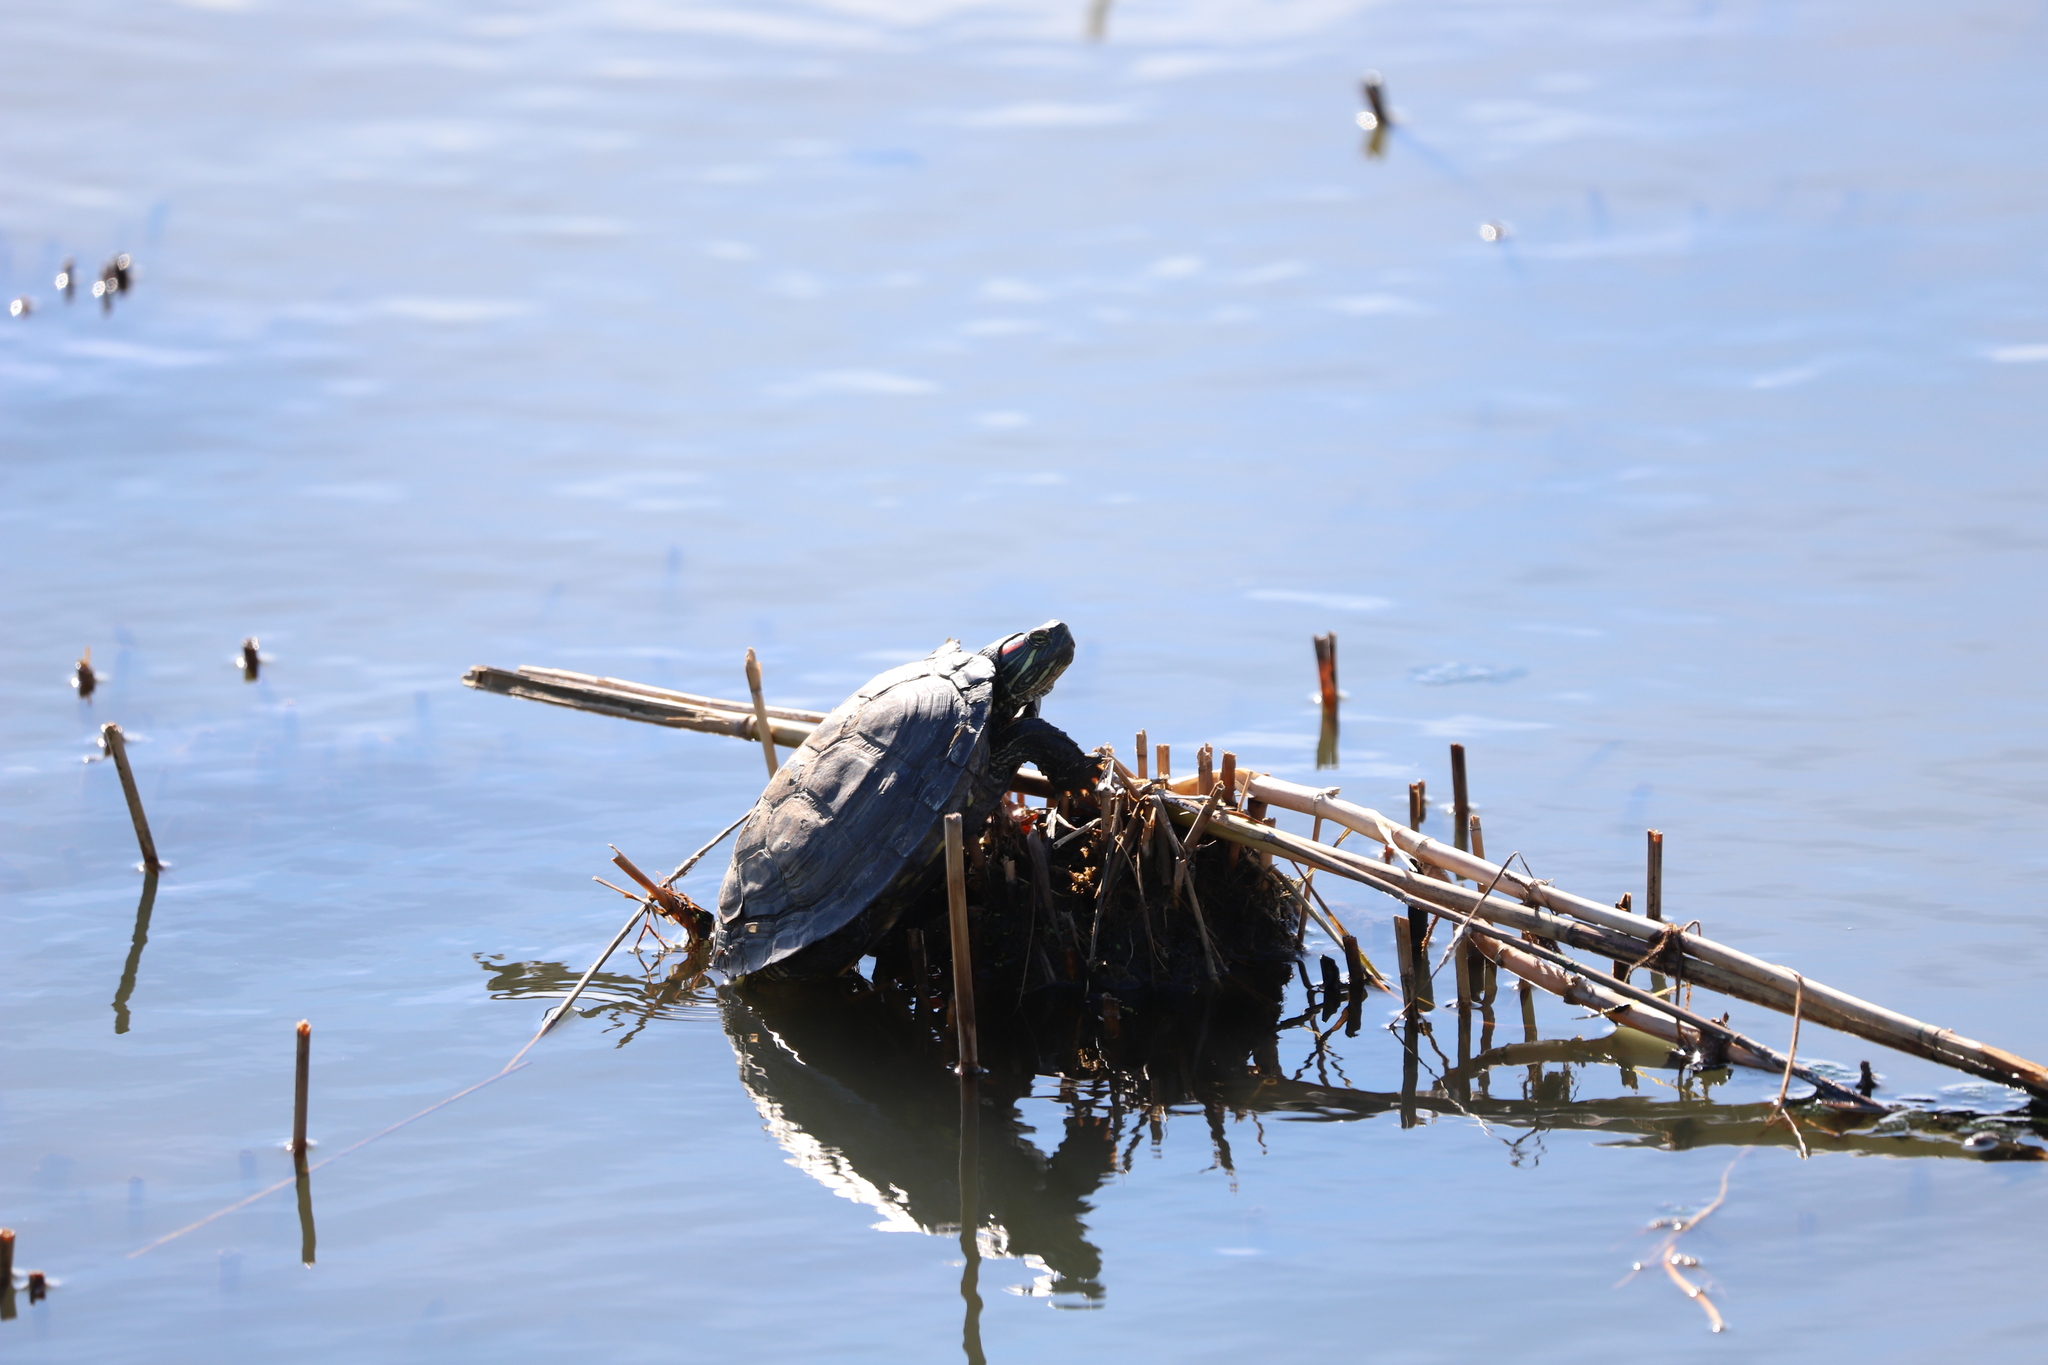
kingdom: Animalia
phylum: Chordata
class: Testudines
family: Emydidae
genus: Trachemys
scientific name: Trachemys scripta
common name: Slider
